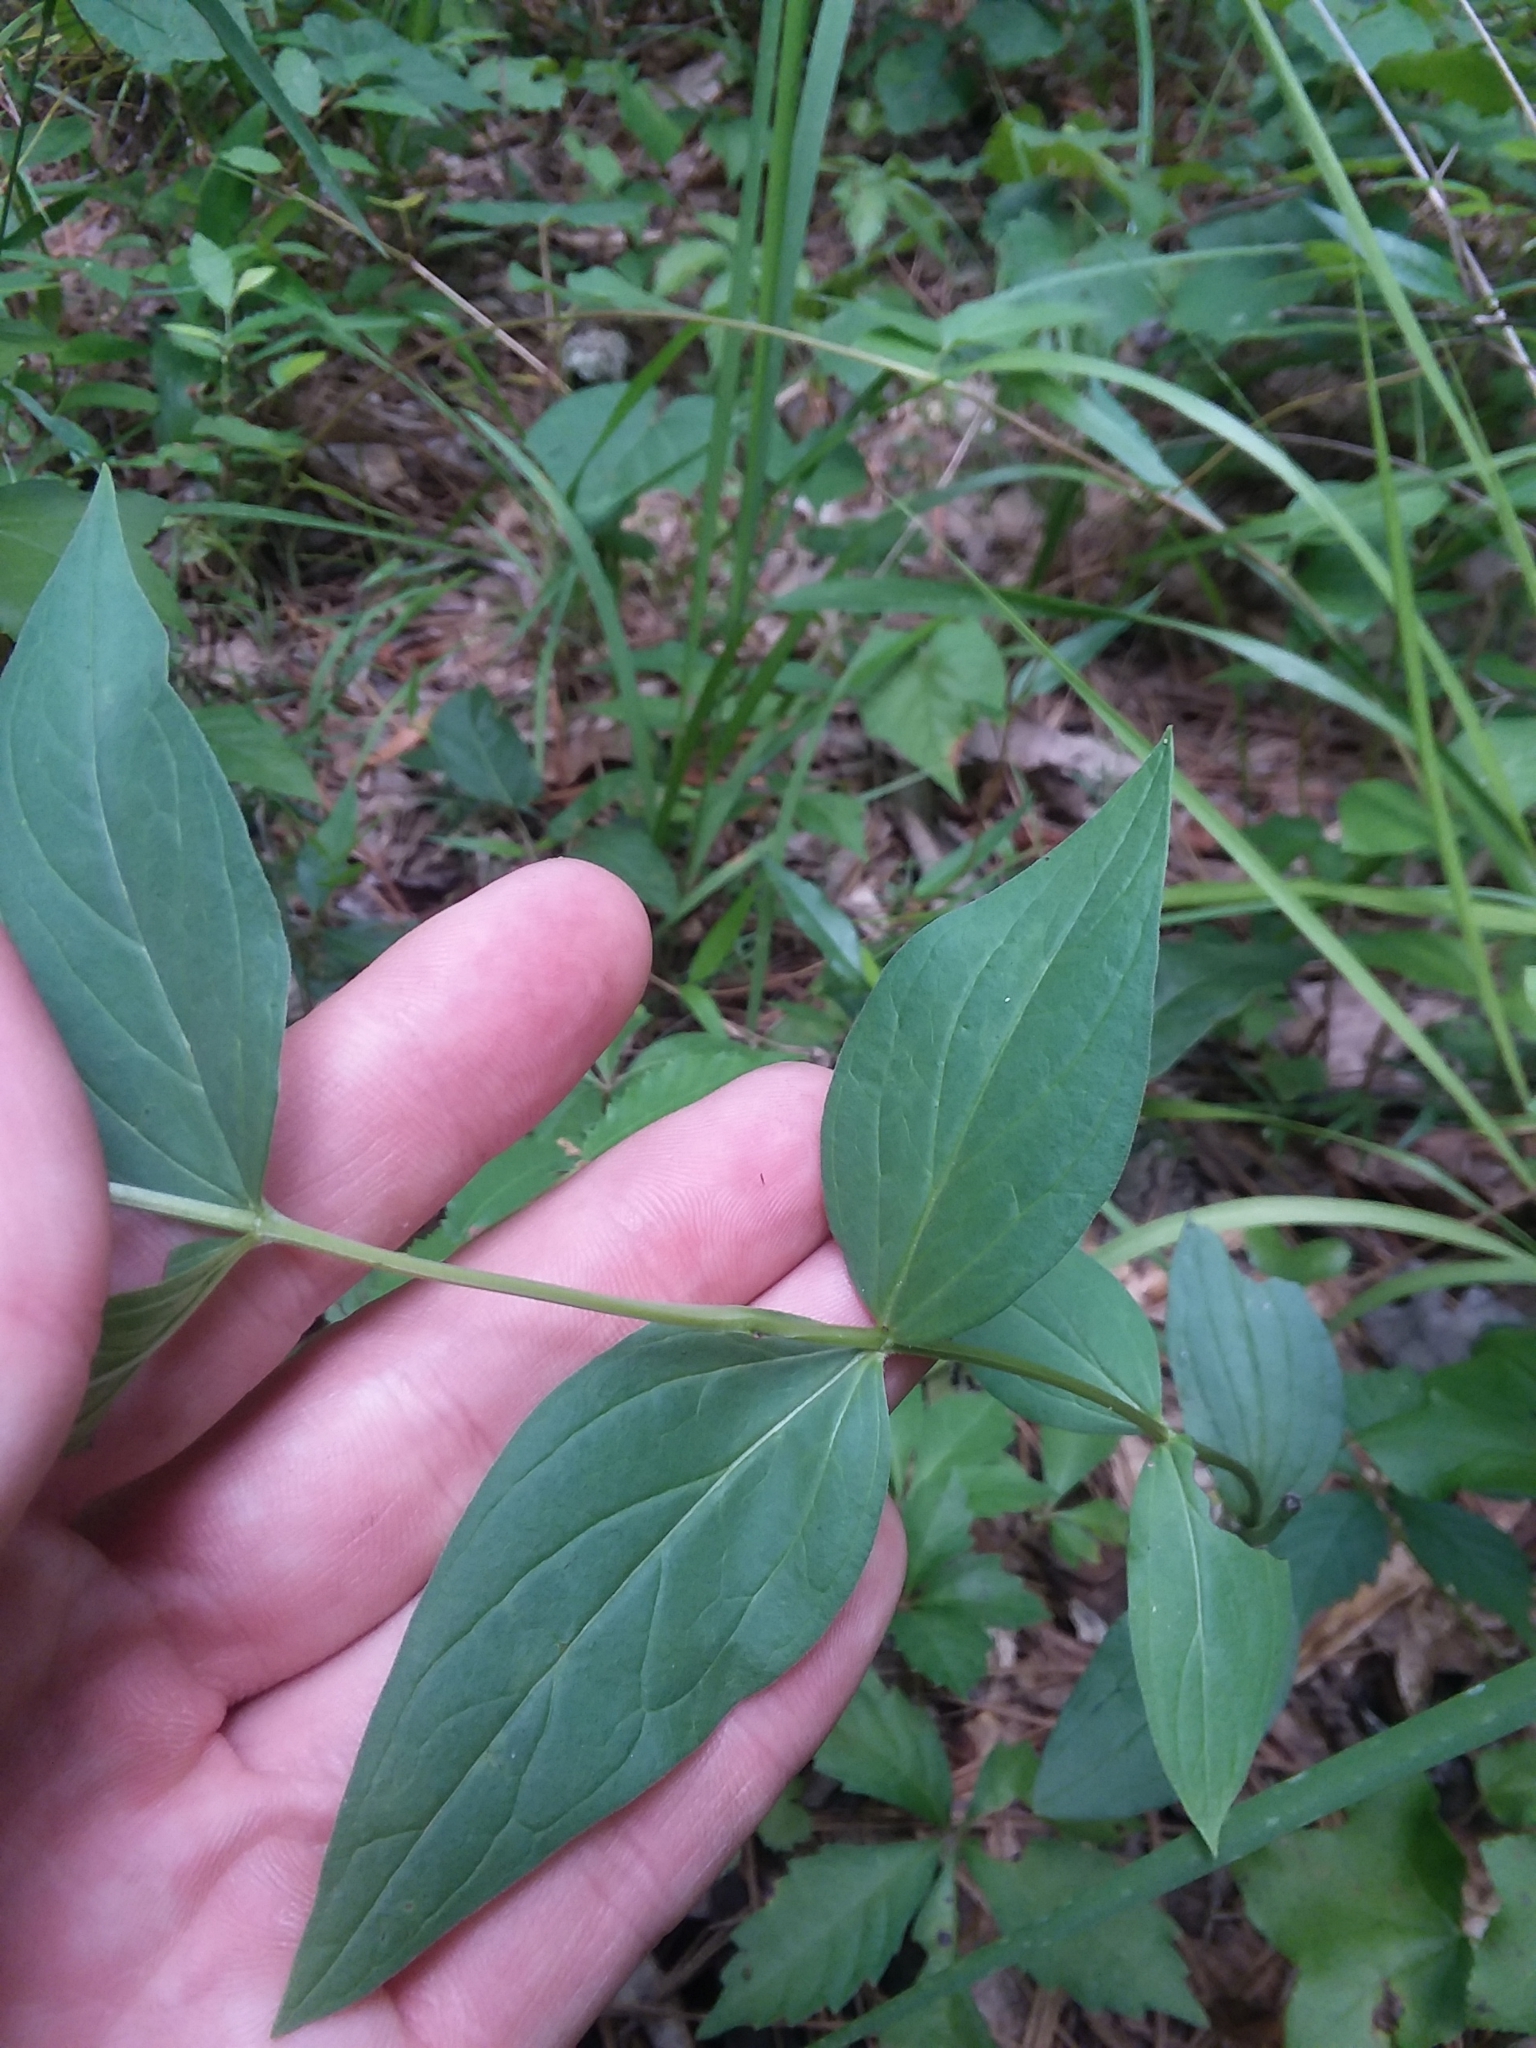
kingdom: Plantae
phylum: Tracheophyta
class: Magnoliopsida
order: Gentianales
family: Loganiaceae
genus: Spigelia
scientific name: Spigelia marilandica
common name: Indian-pink
